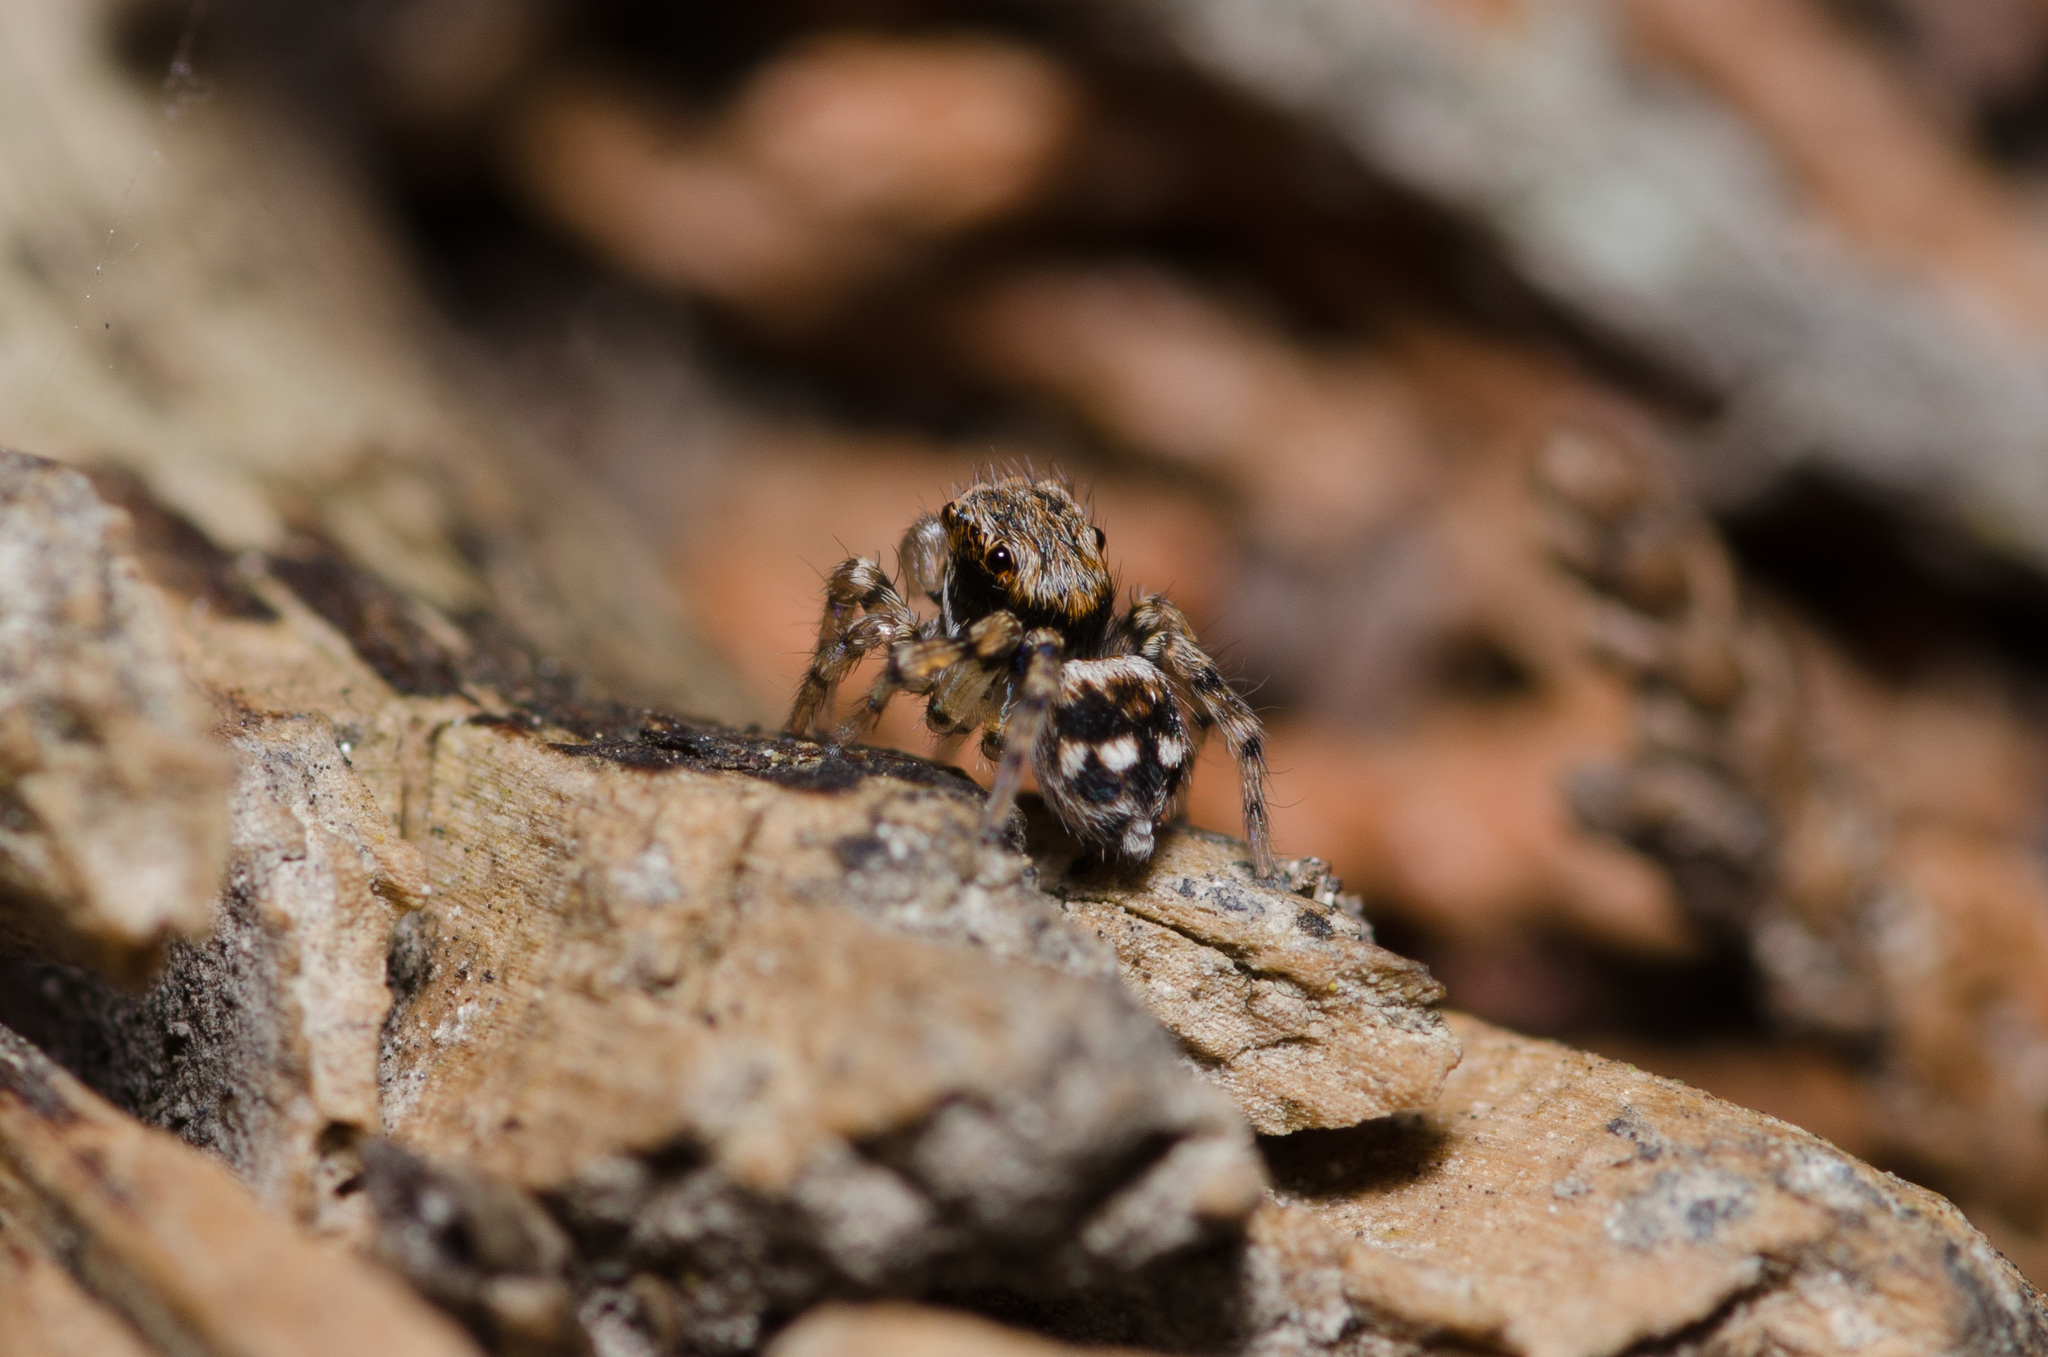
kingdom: Animalia
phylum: Arthropoda
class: Arachnida
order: Araneae
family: Salticidae
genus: Naphrys
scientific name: Naphrys acerba
